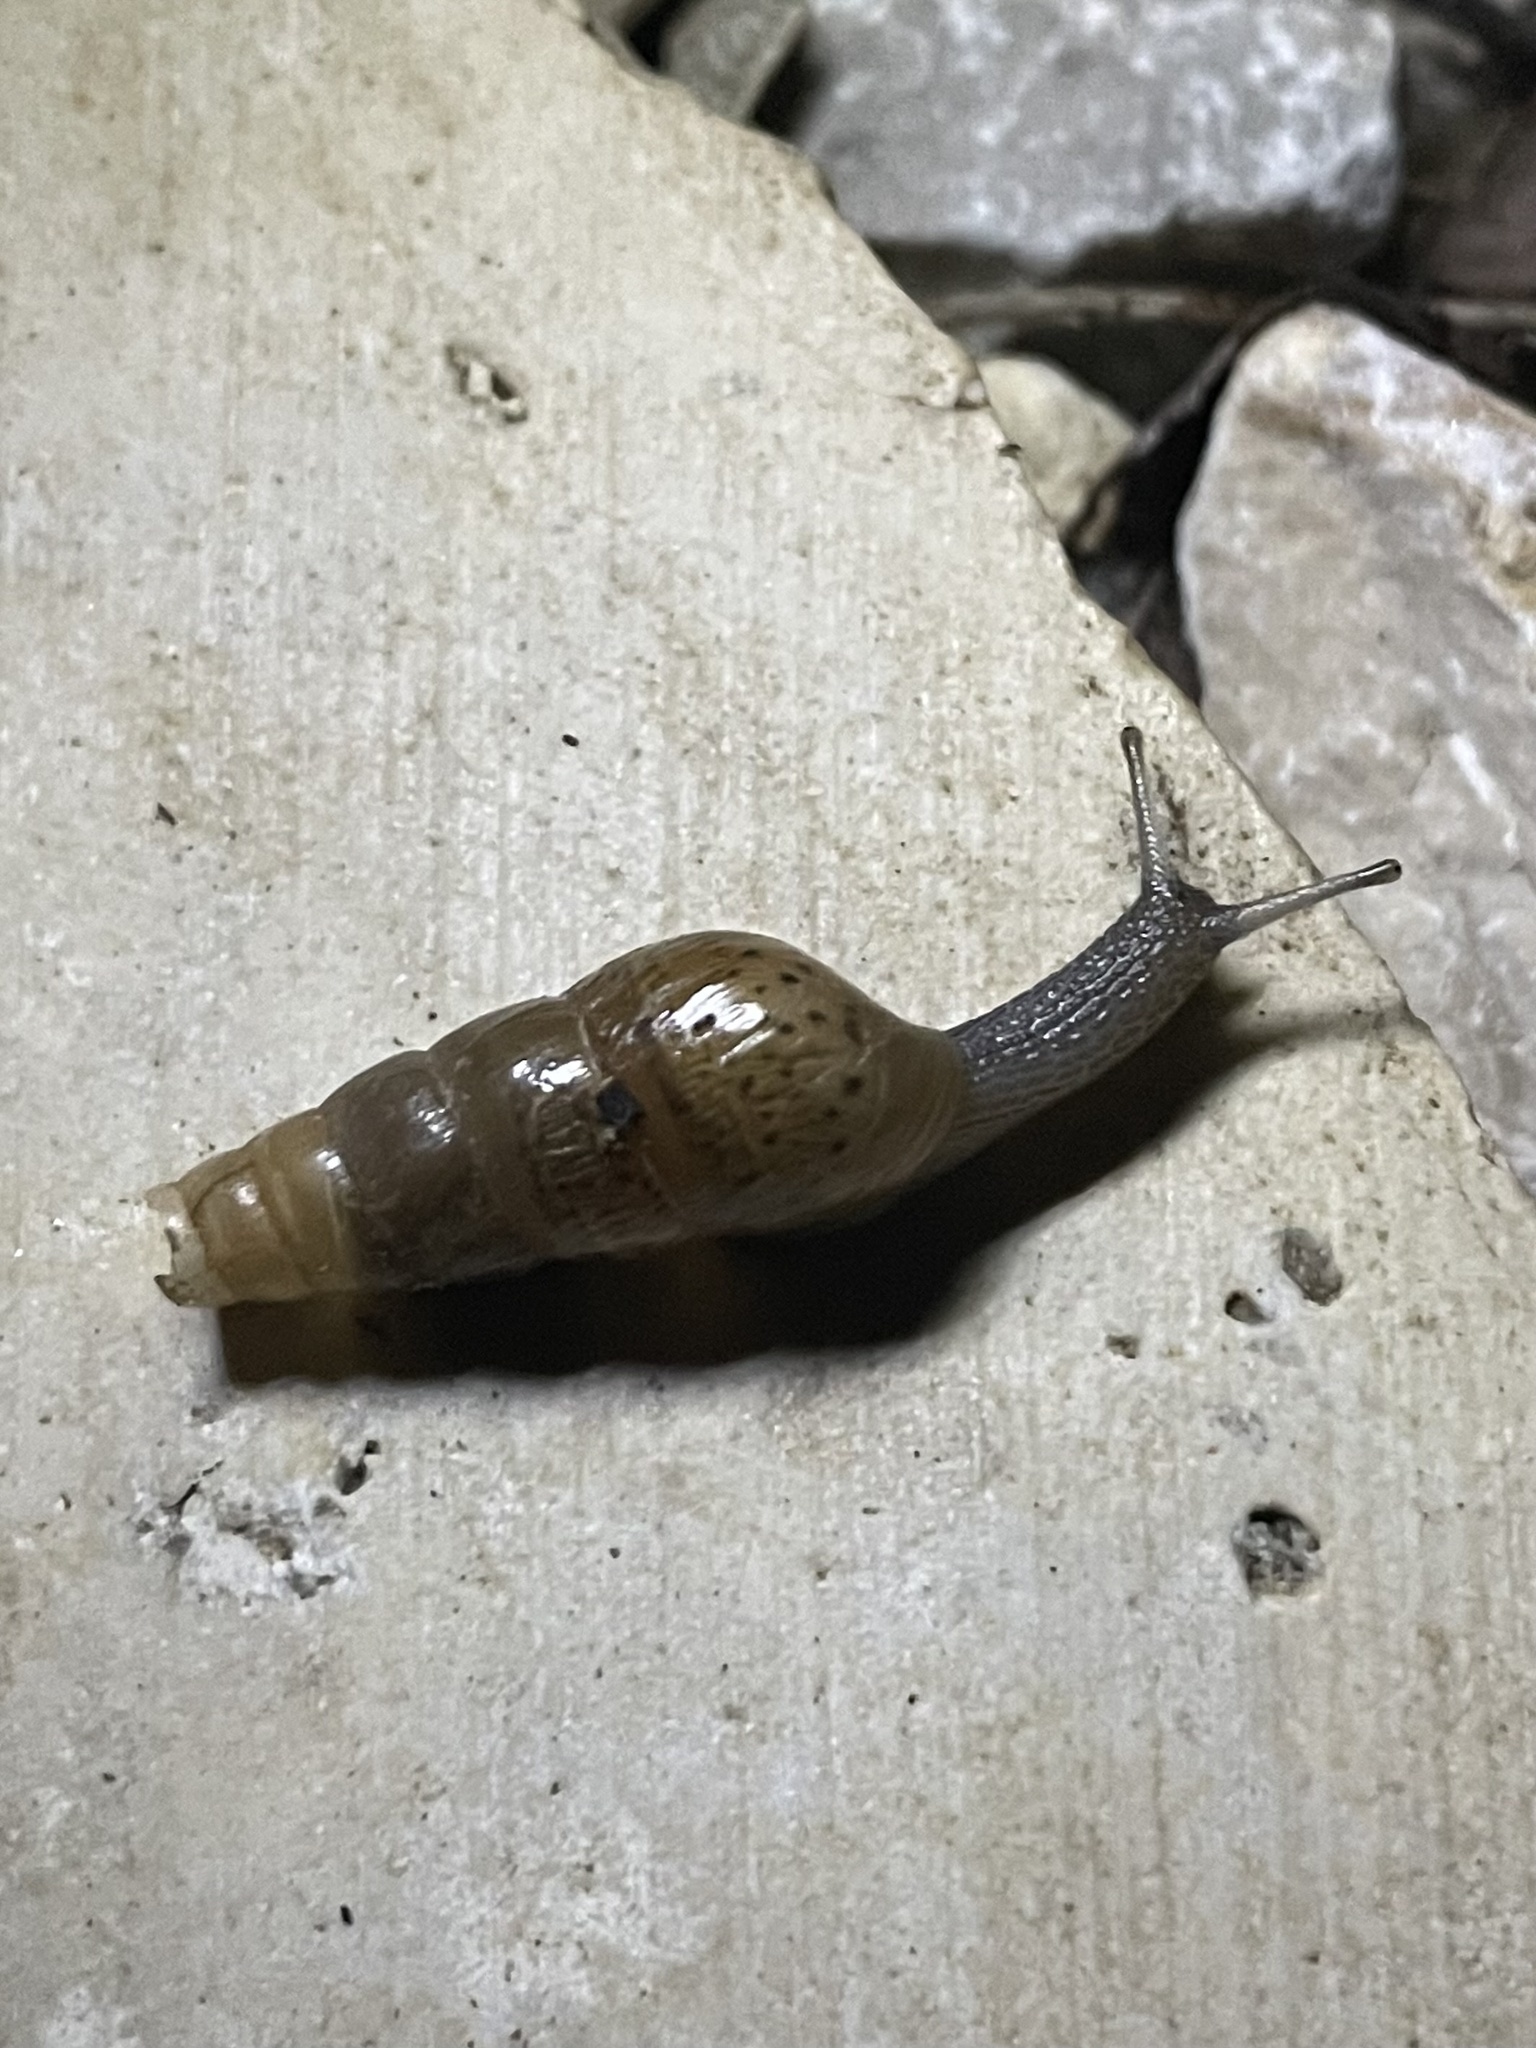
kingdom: Animalia
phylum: Mollusca
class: Gastropoda
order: Stylommatophora
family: Achatinidae
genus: Rumina
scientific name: Rumina decollata
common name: Decollate snail
